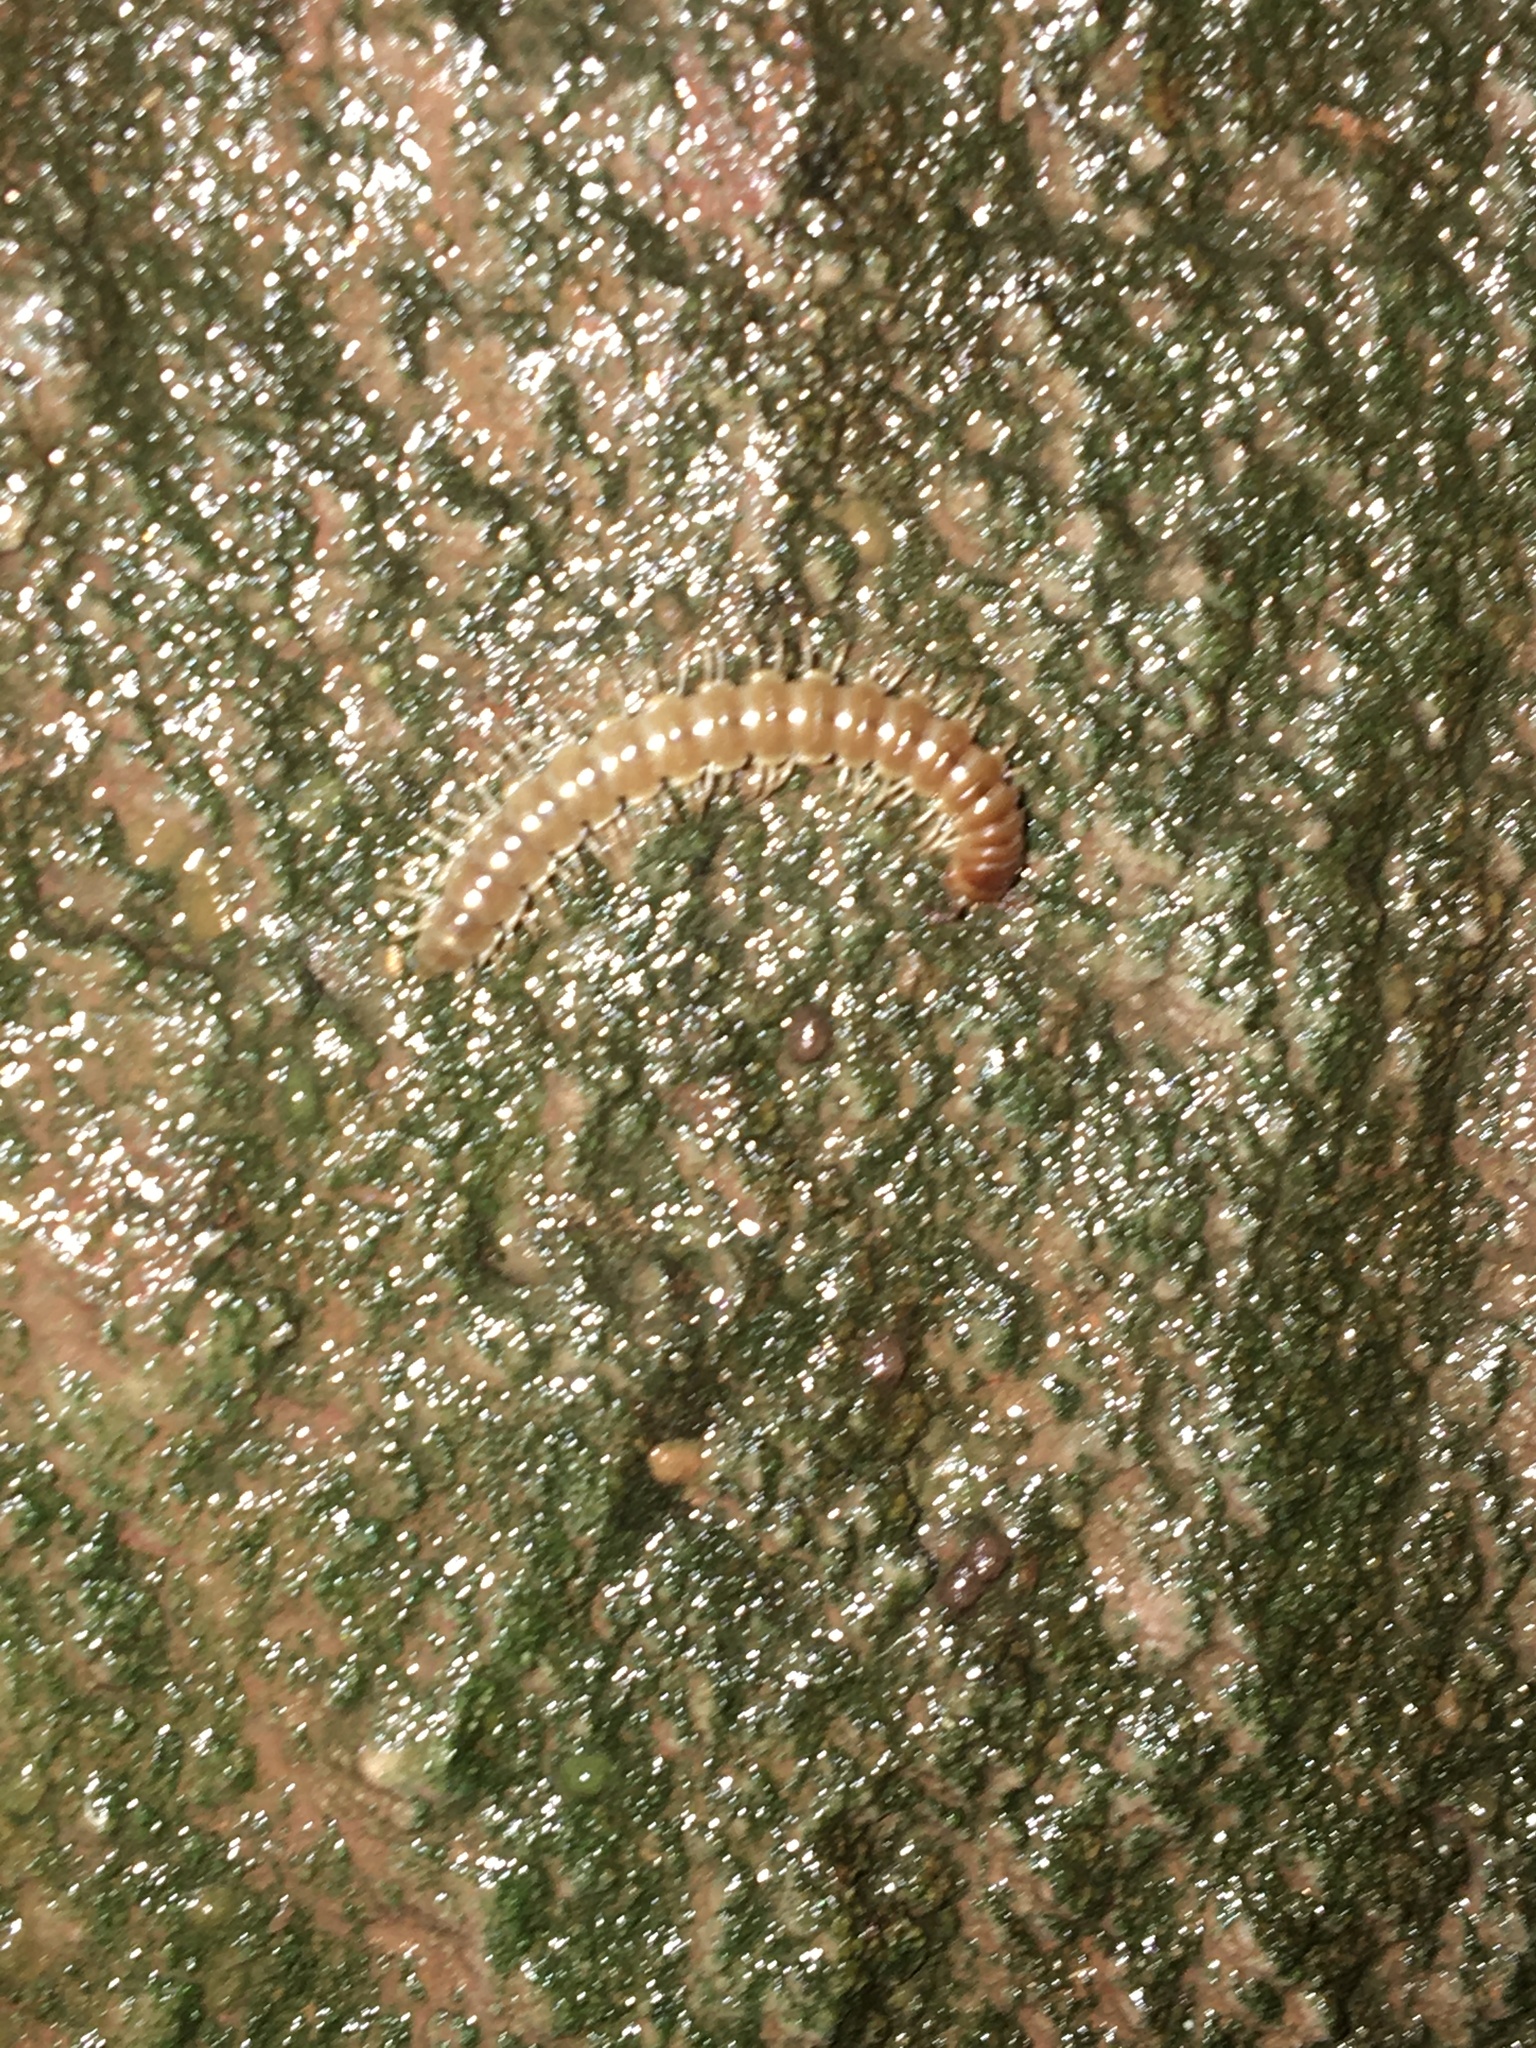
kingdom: Animalia
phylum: Arthropoda
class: Diplopoda
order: Polydesmida
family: Paradoxosomatidae
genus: Oxidus
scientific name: Oxidus gracilis
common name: Greenhouse millipede
